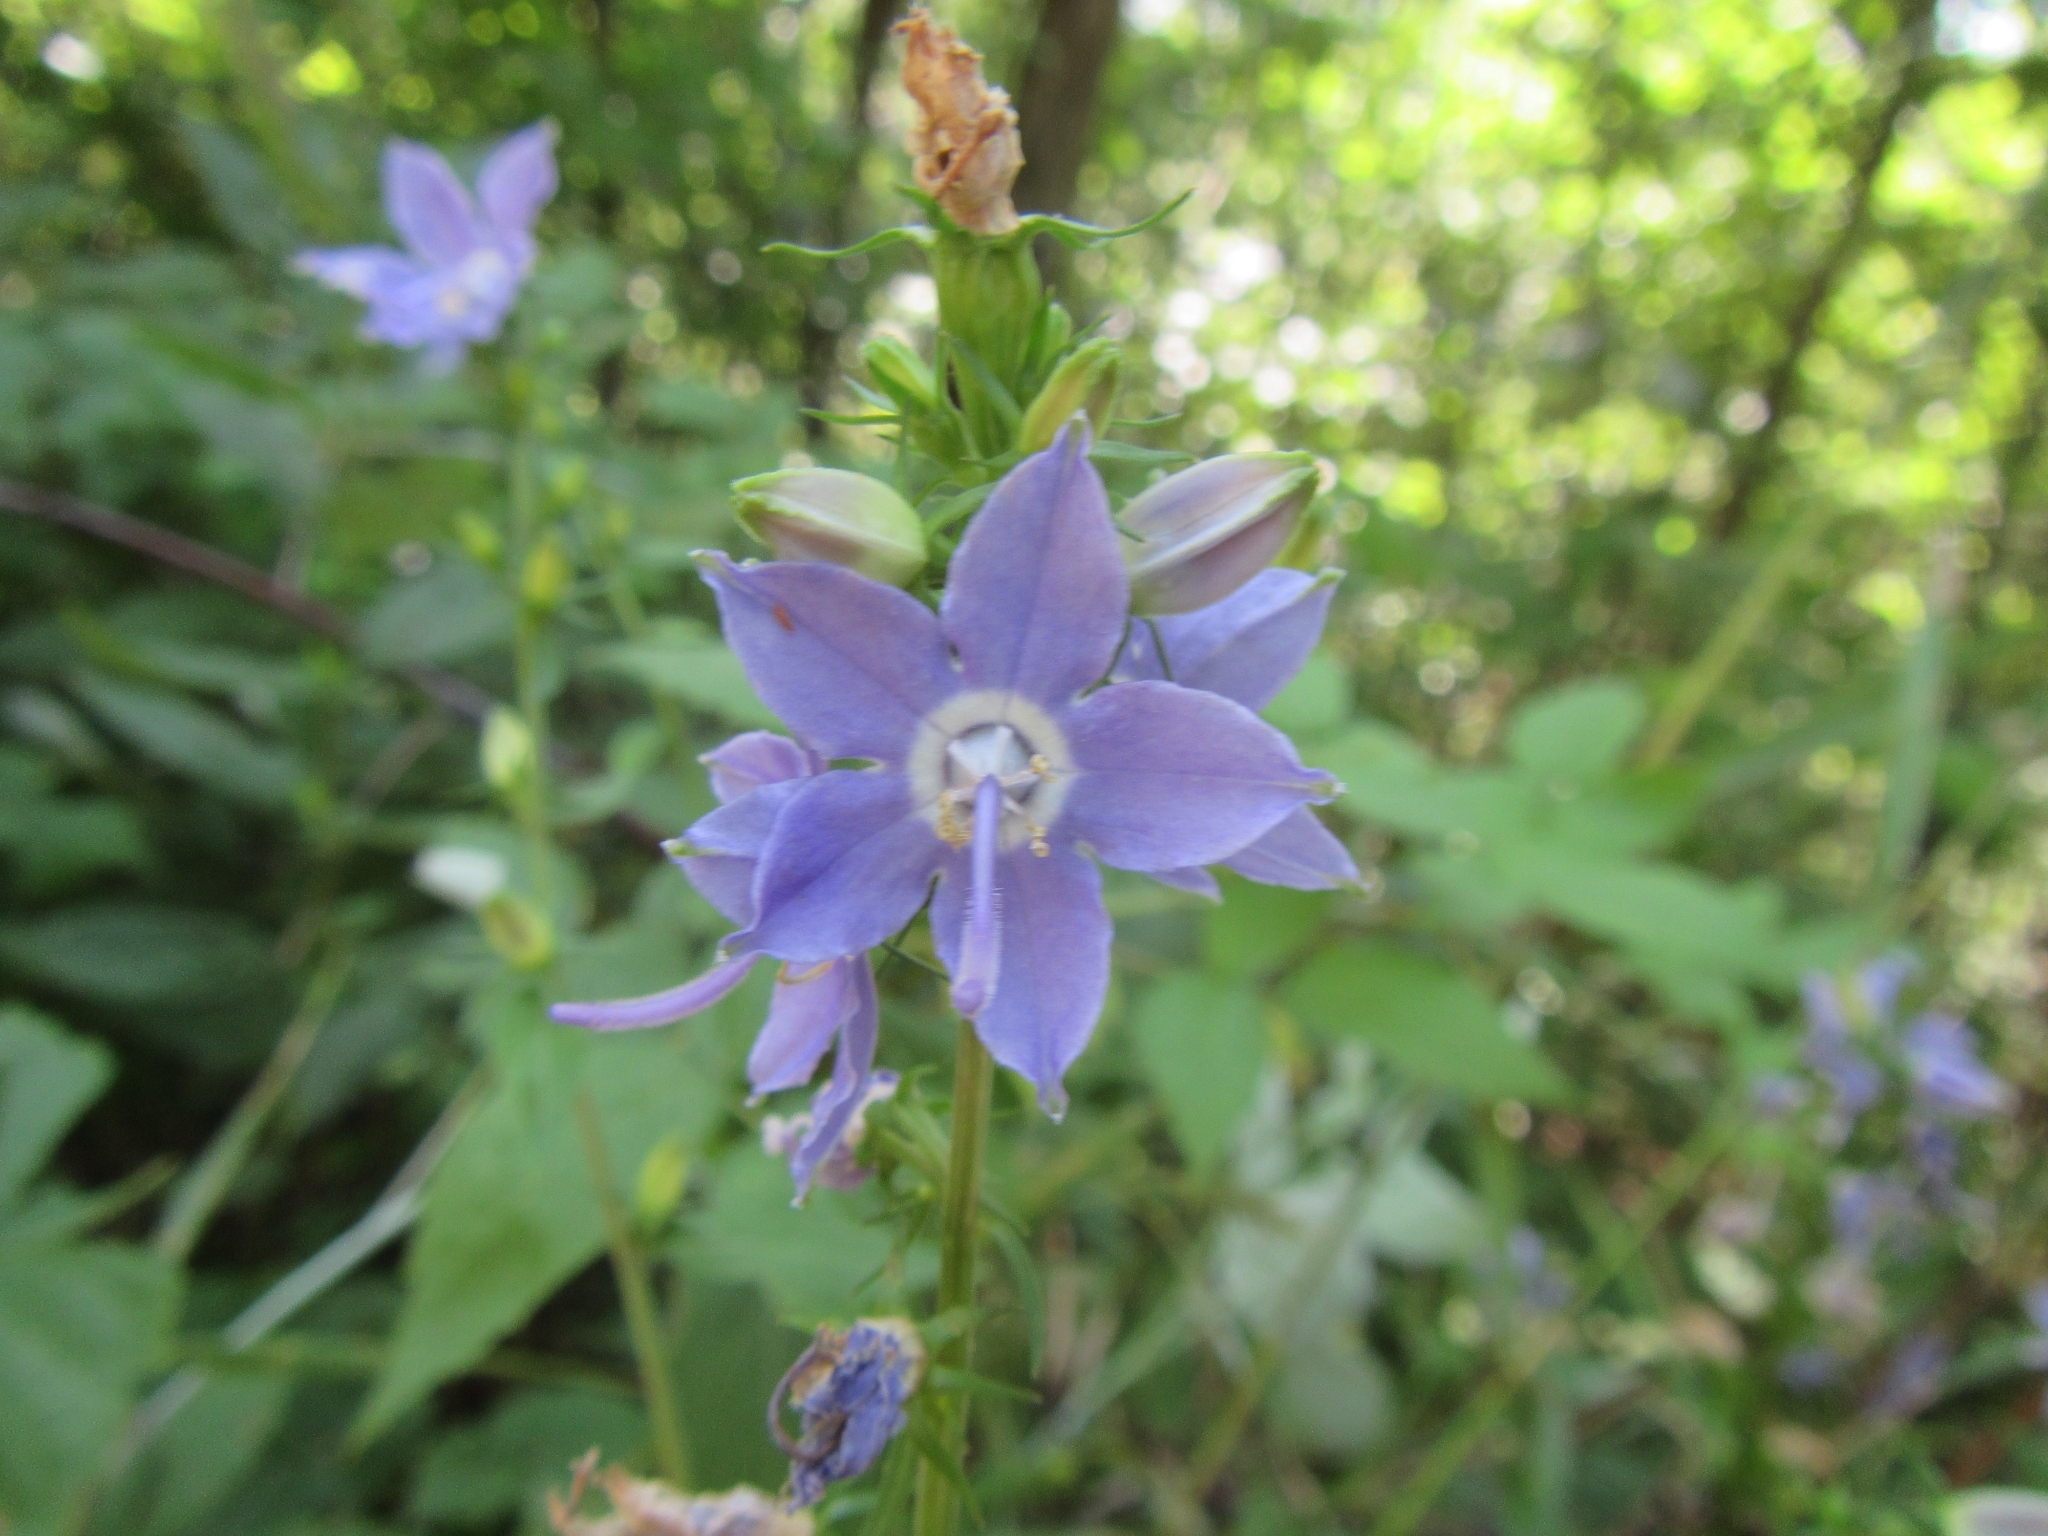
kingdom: Plantae
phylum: Tracheophyta
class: Magnoliopsida
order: Asterales
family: Campanulaceae
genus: Campanulastrum
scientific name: Campanulastrum americanum
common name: American bellflower
